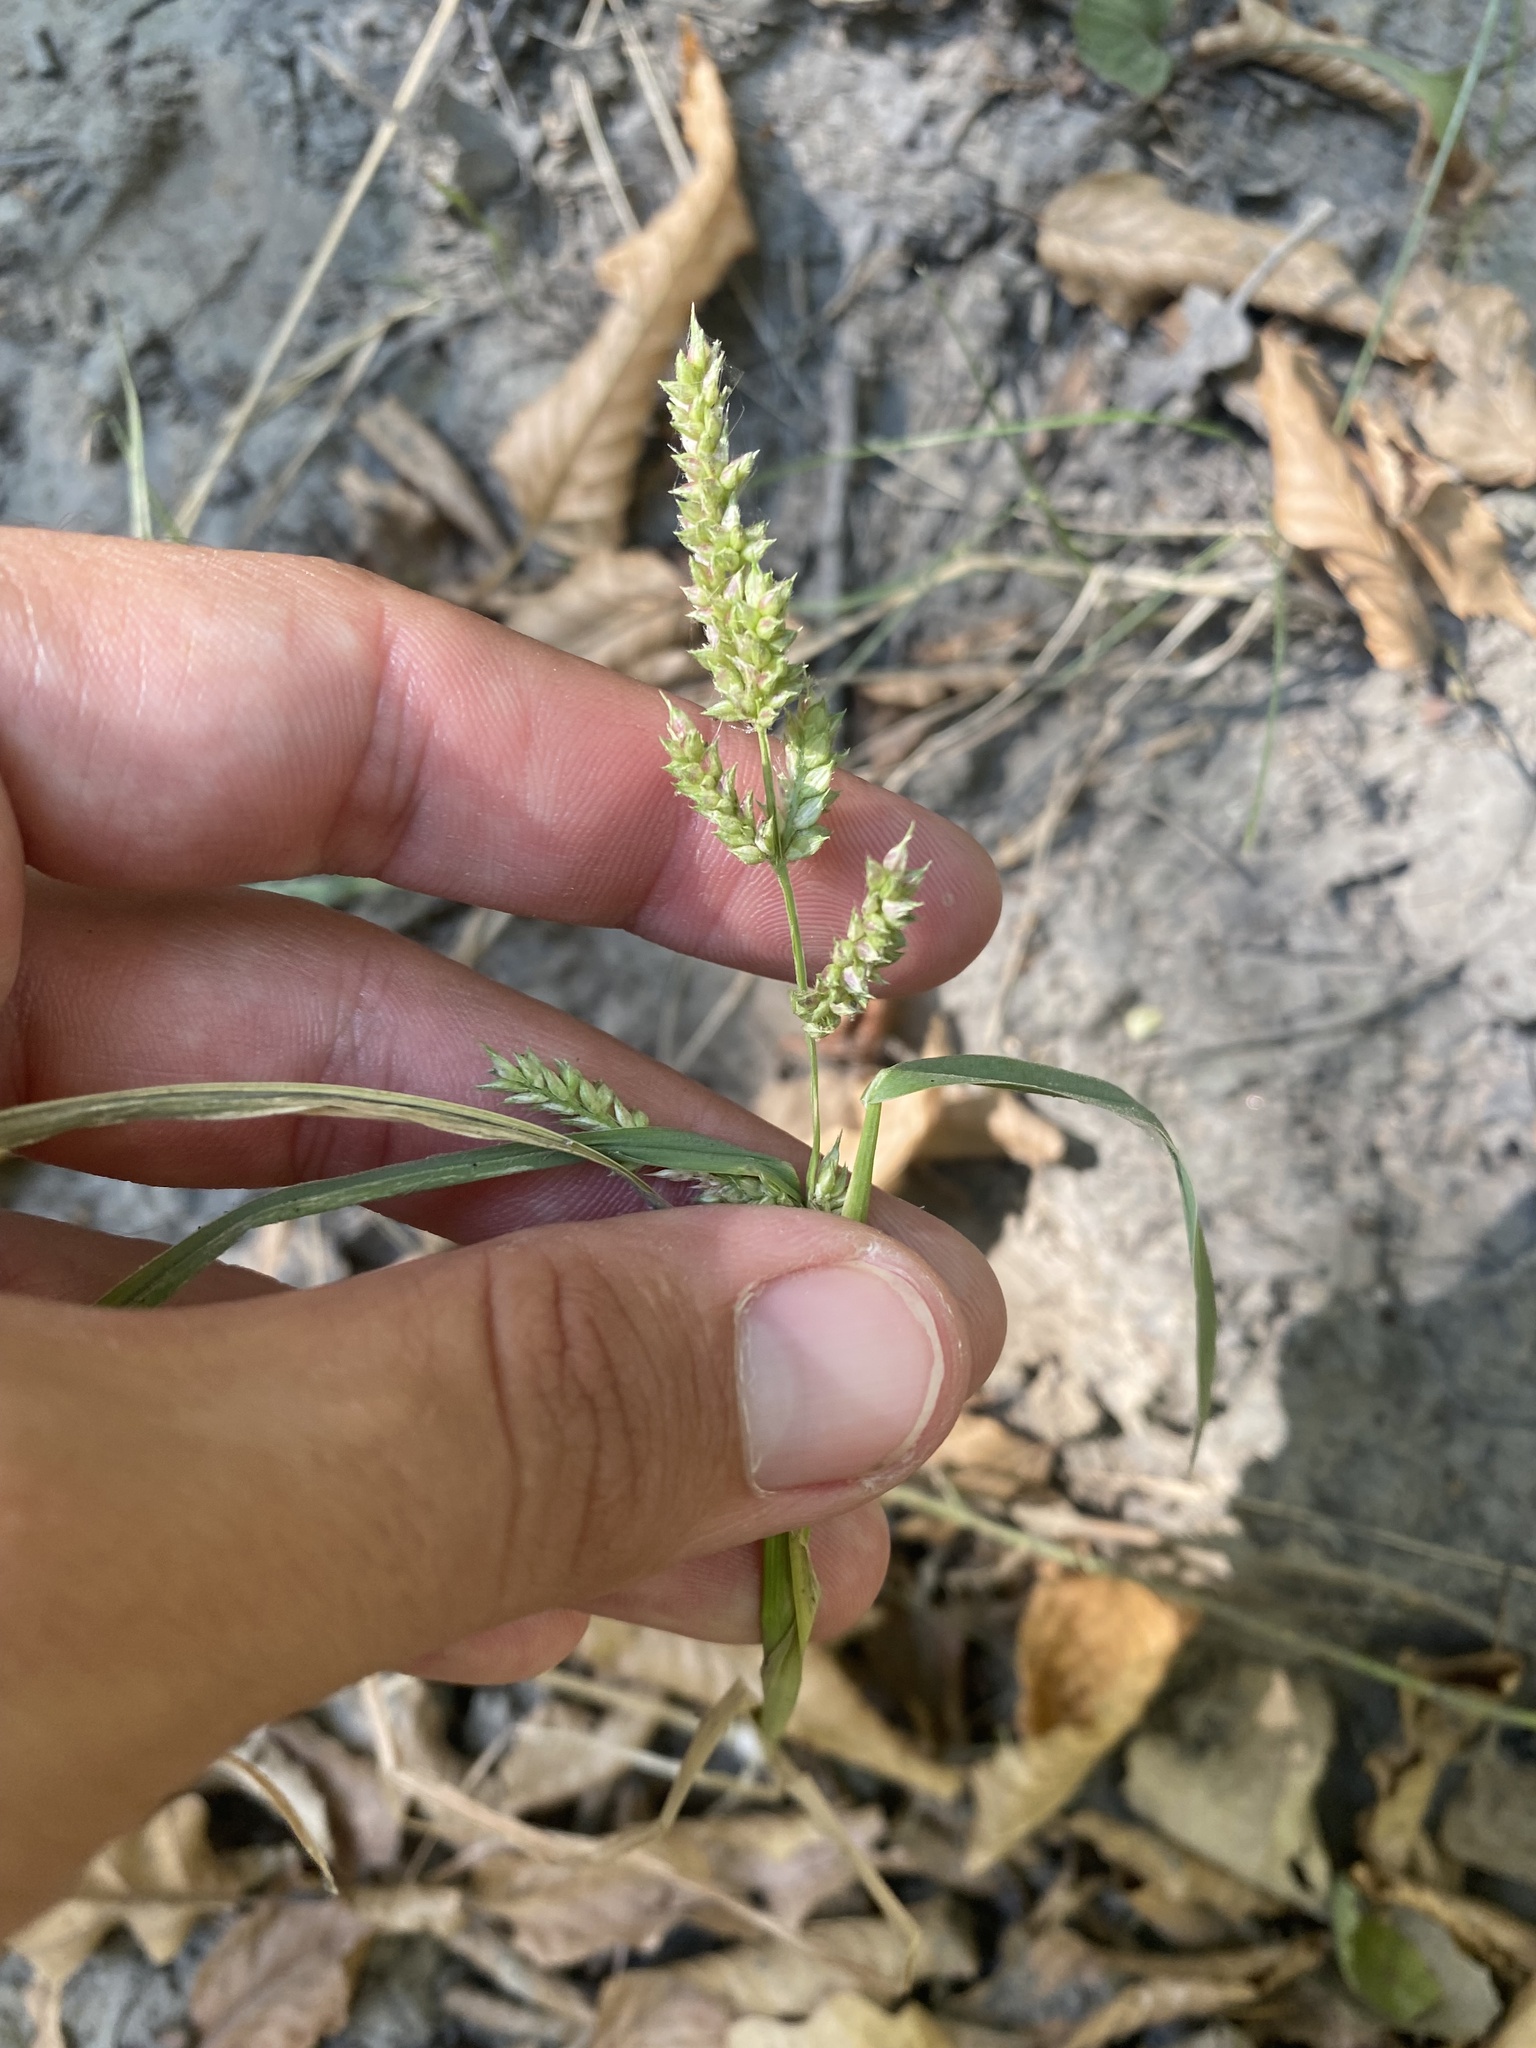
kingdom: Plantae
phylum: Tracheophyta
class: Liliopsida
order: Poales
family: Poaceae
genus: Echinochloa
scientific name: Echinochloa crus-galli
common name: Cockspur
